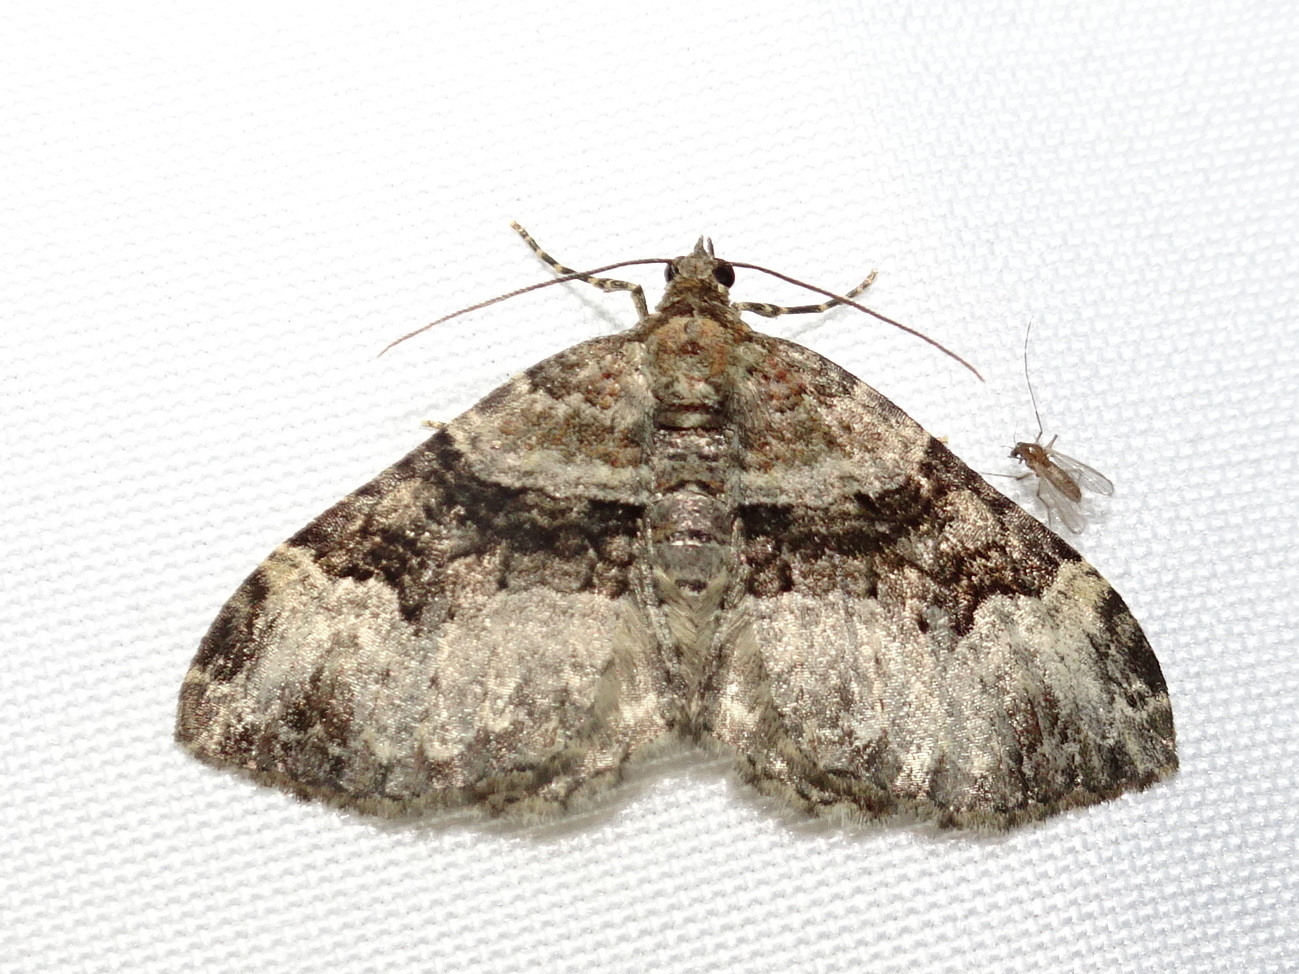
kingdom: Animalia
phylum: Arthropoda
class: Insecta
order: Lepidoptera
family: Geometridae
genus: Xanthorhoe
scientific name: Xanthorhoe lacustrata
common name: Toothed brown carpet
